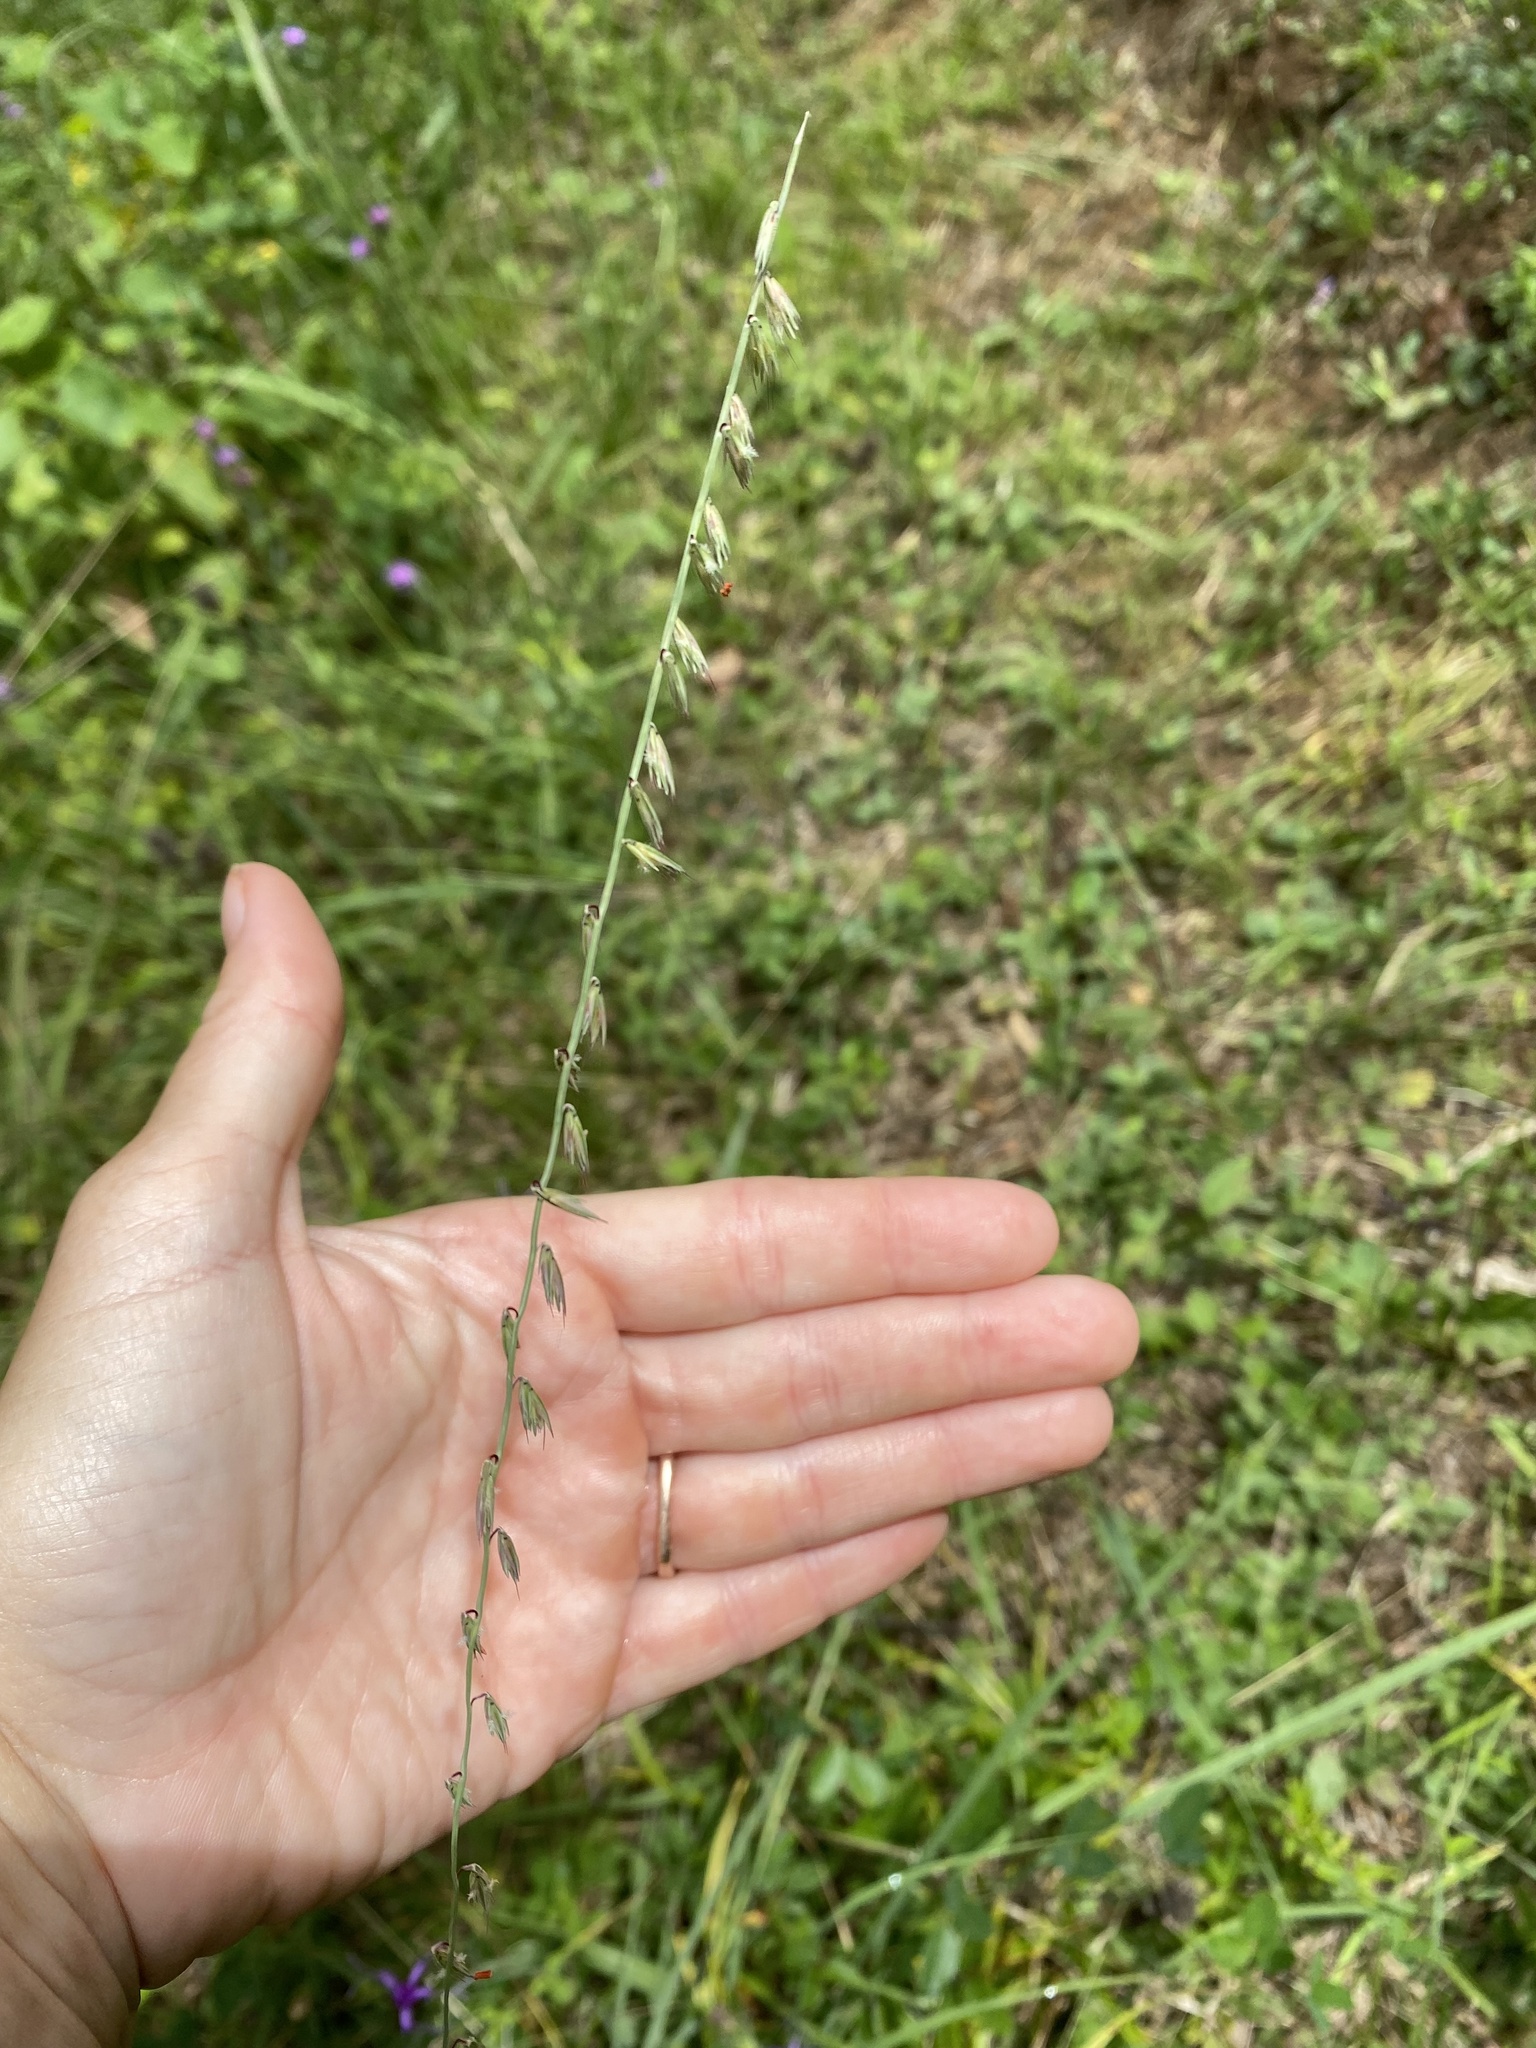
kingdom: Plantae
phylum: Tracheophyta
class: Liliopsida
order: Poales
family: Poaceae
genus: Bouteloua
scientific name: Bouteloua curtipendula
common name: Side-oats grama
